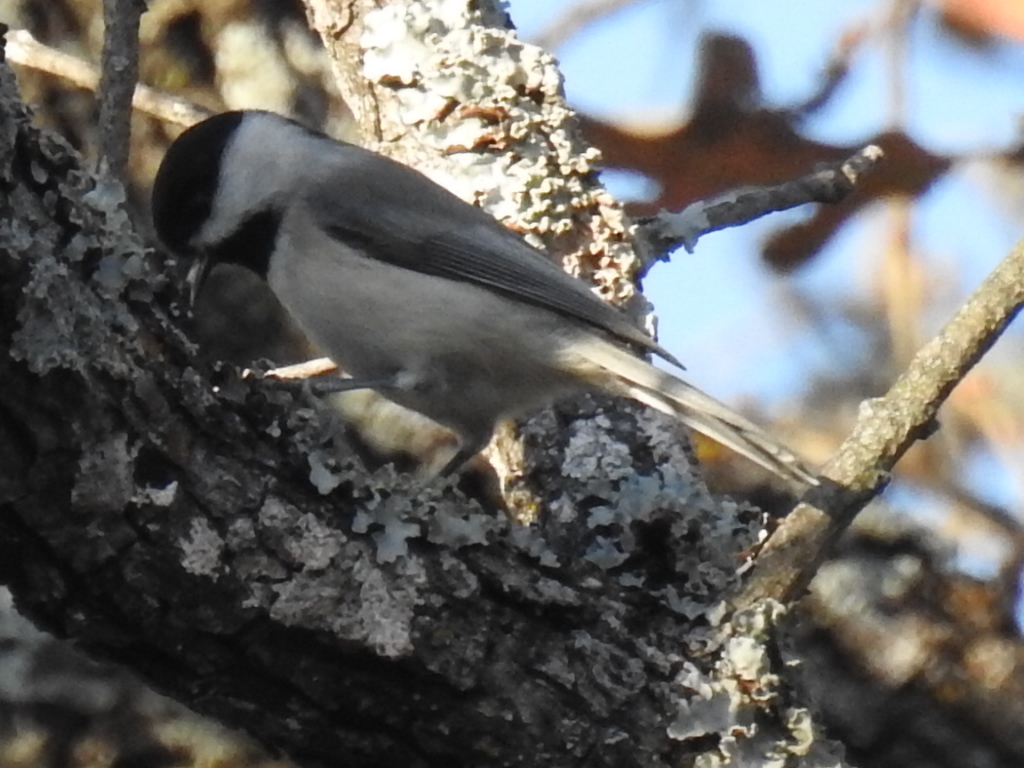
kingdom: Animalia
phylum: Chordata
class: Aves
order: Passeriformes
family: Paridae
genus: Poecile
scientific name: Poecile carolinensis
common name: Carolina chickadee
